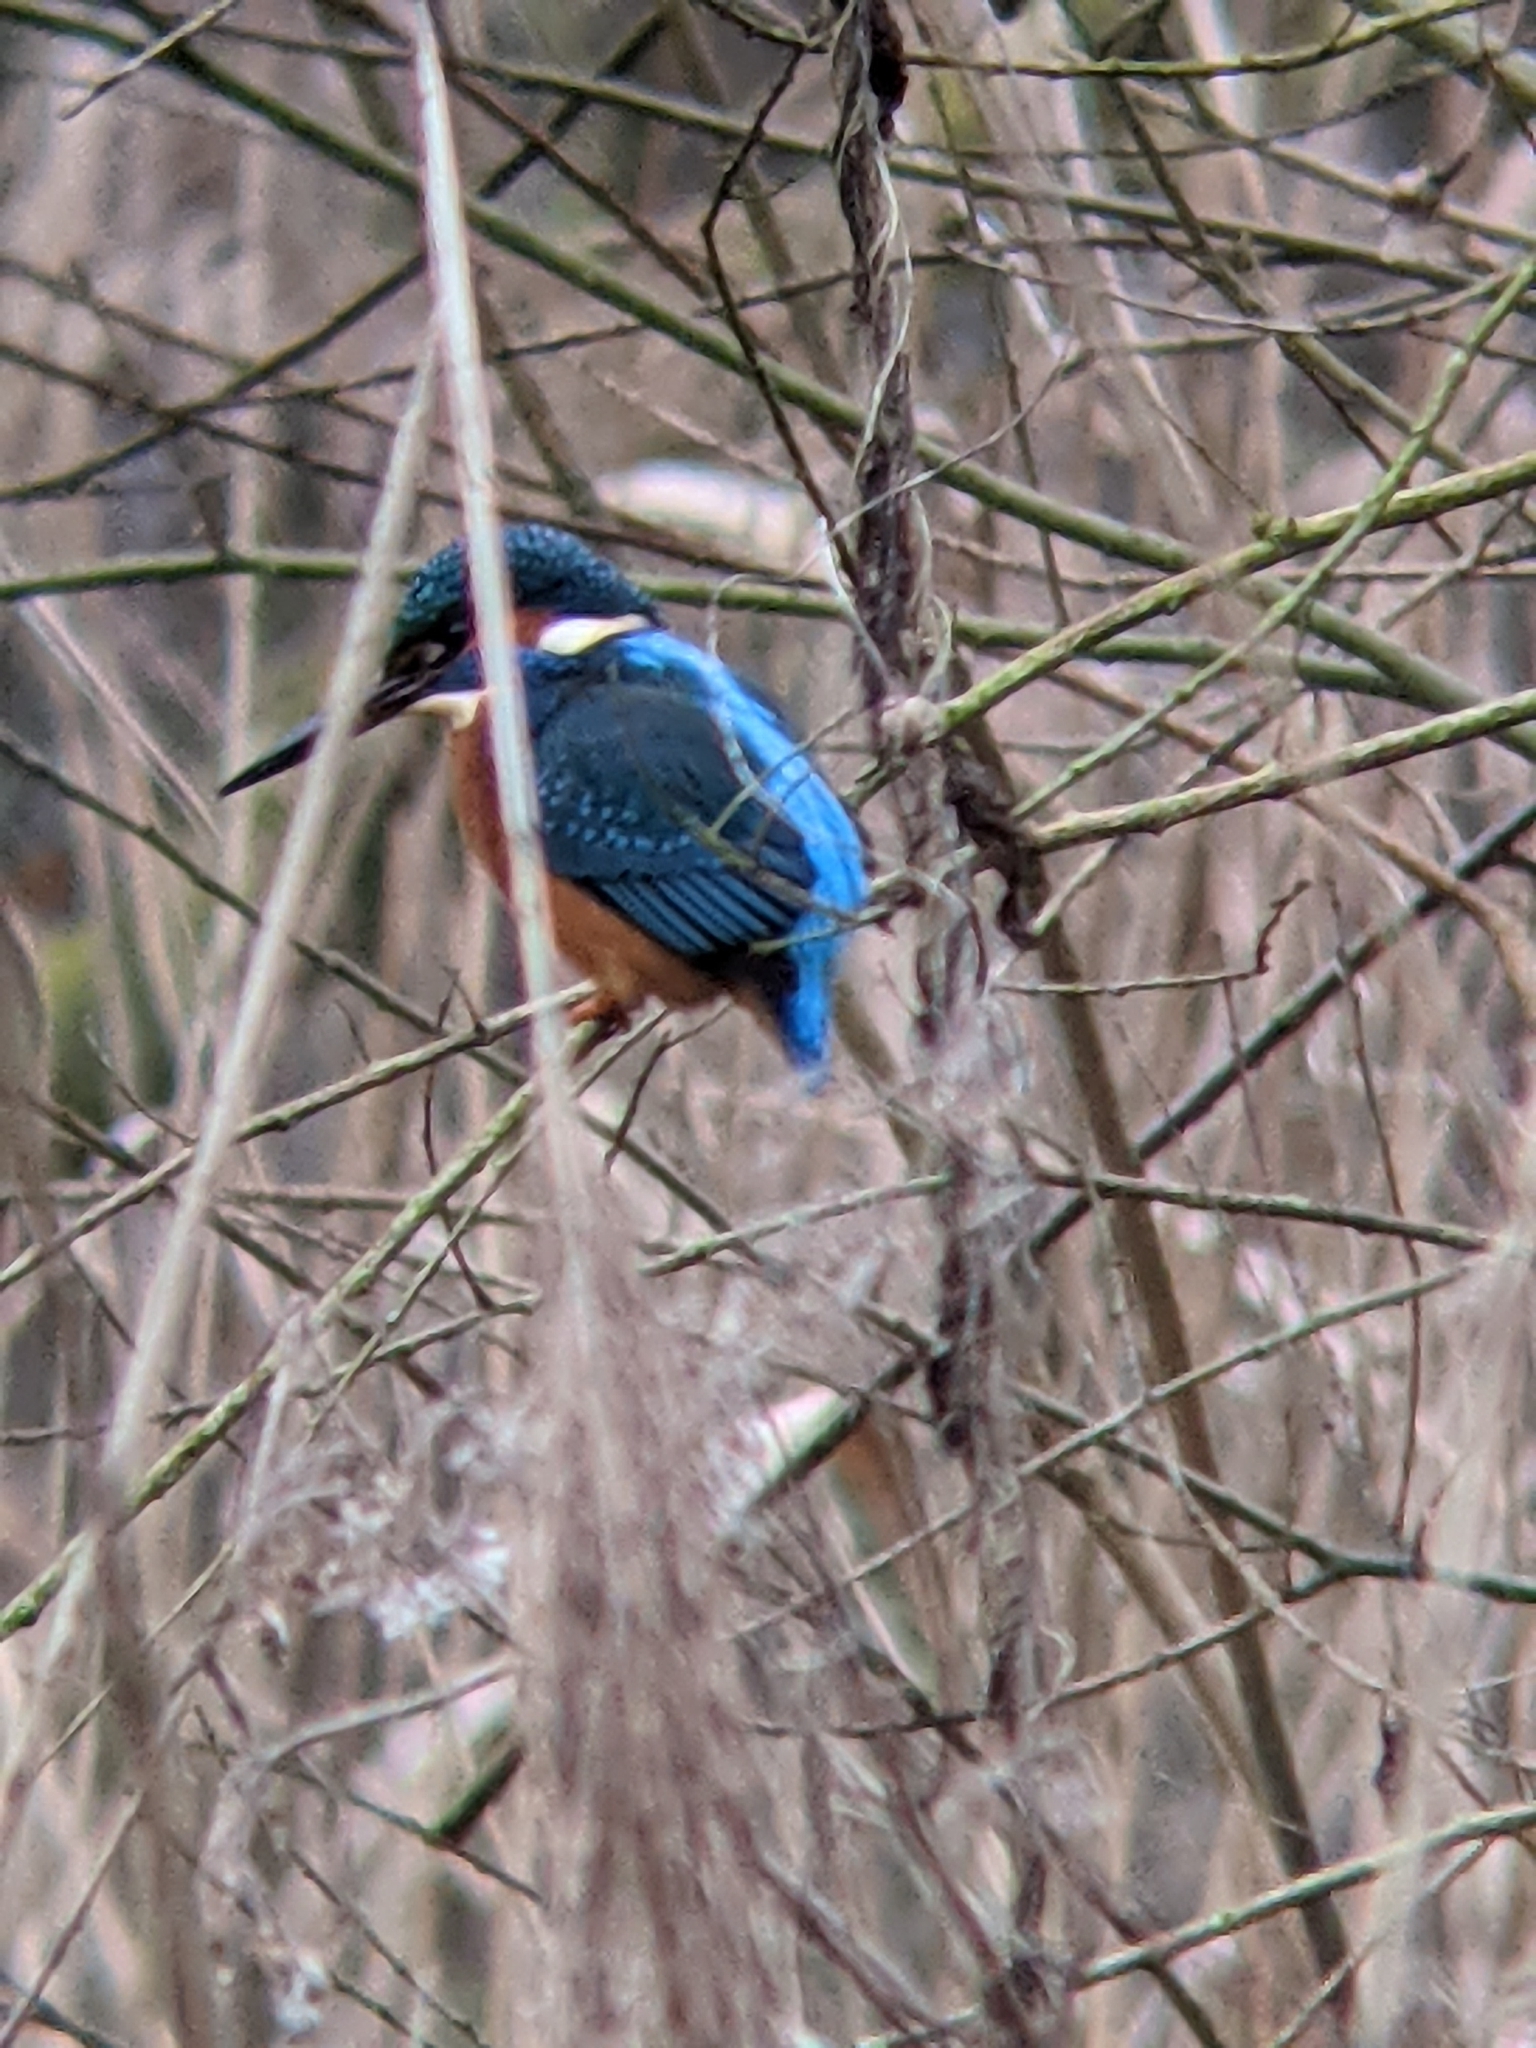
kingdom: Animalia
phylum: Chordata
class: Aves
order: Coraciiformes
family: Alcedinidae
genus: Alcedo
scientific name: Alcedo atthis
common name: Common kingfisher
